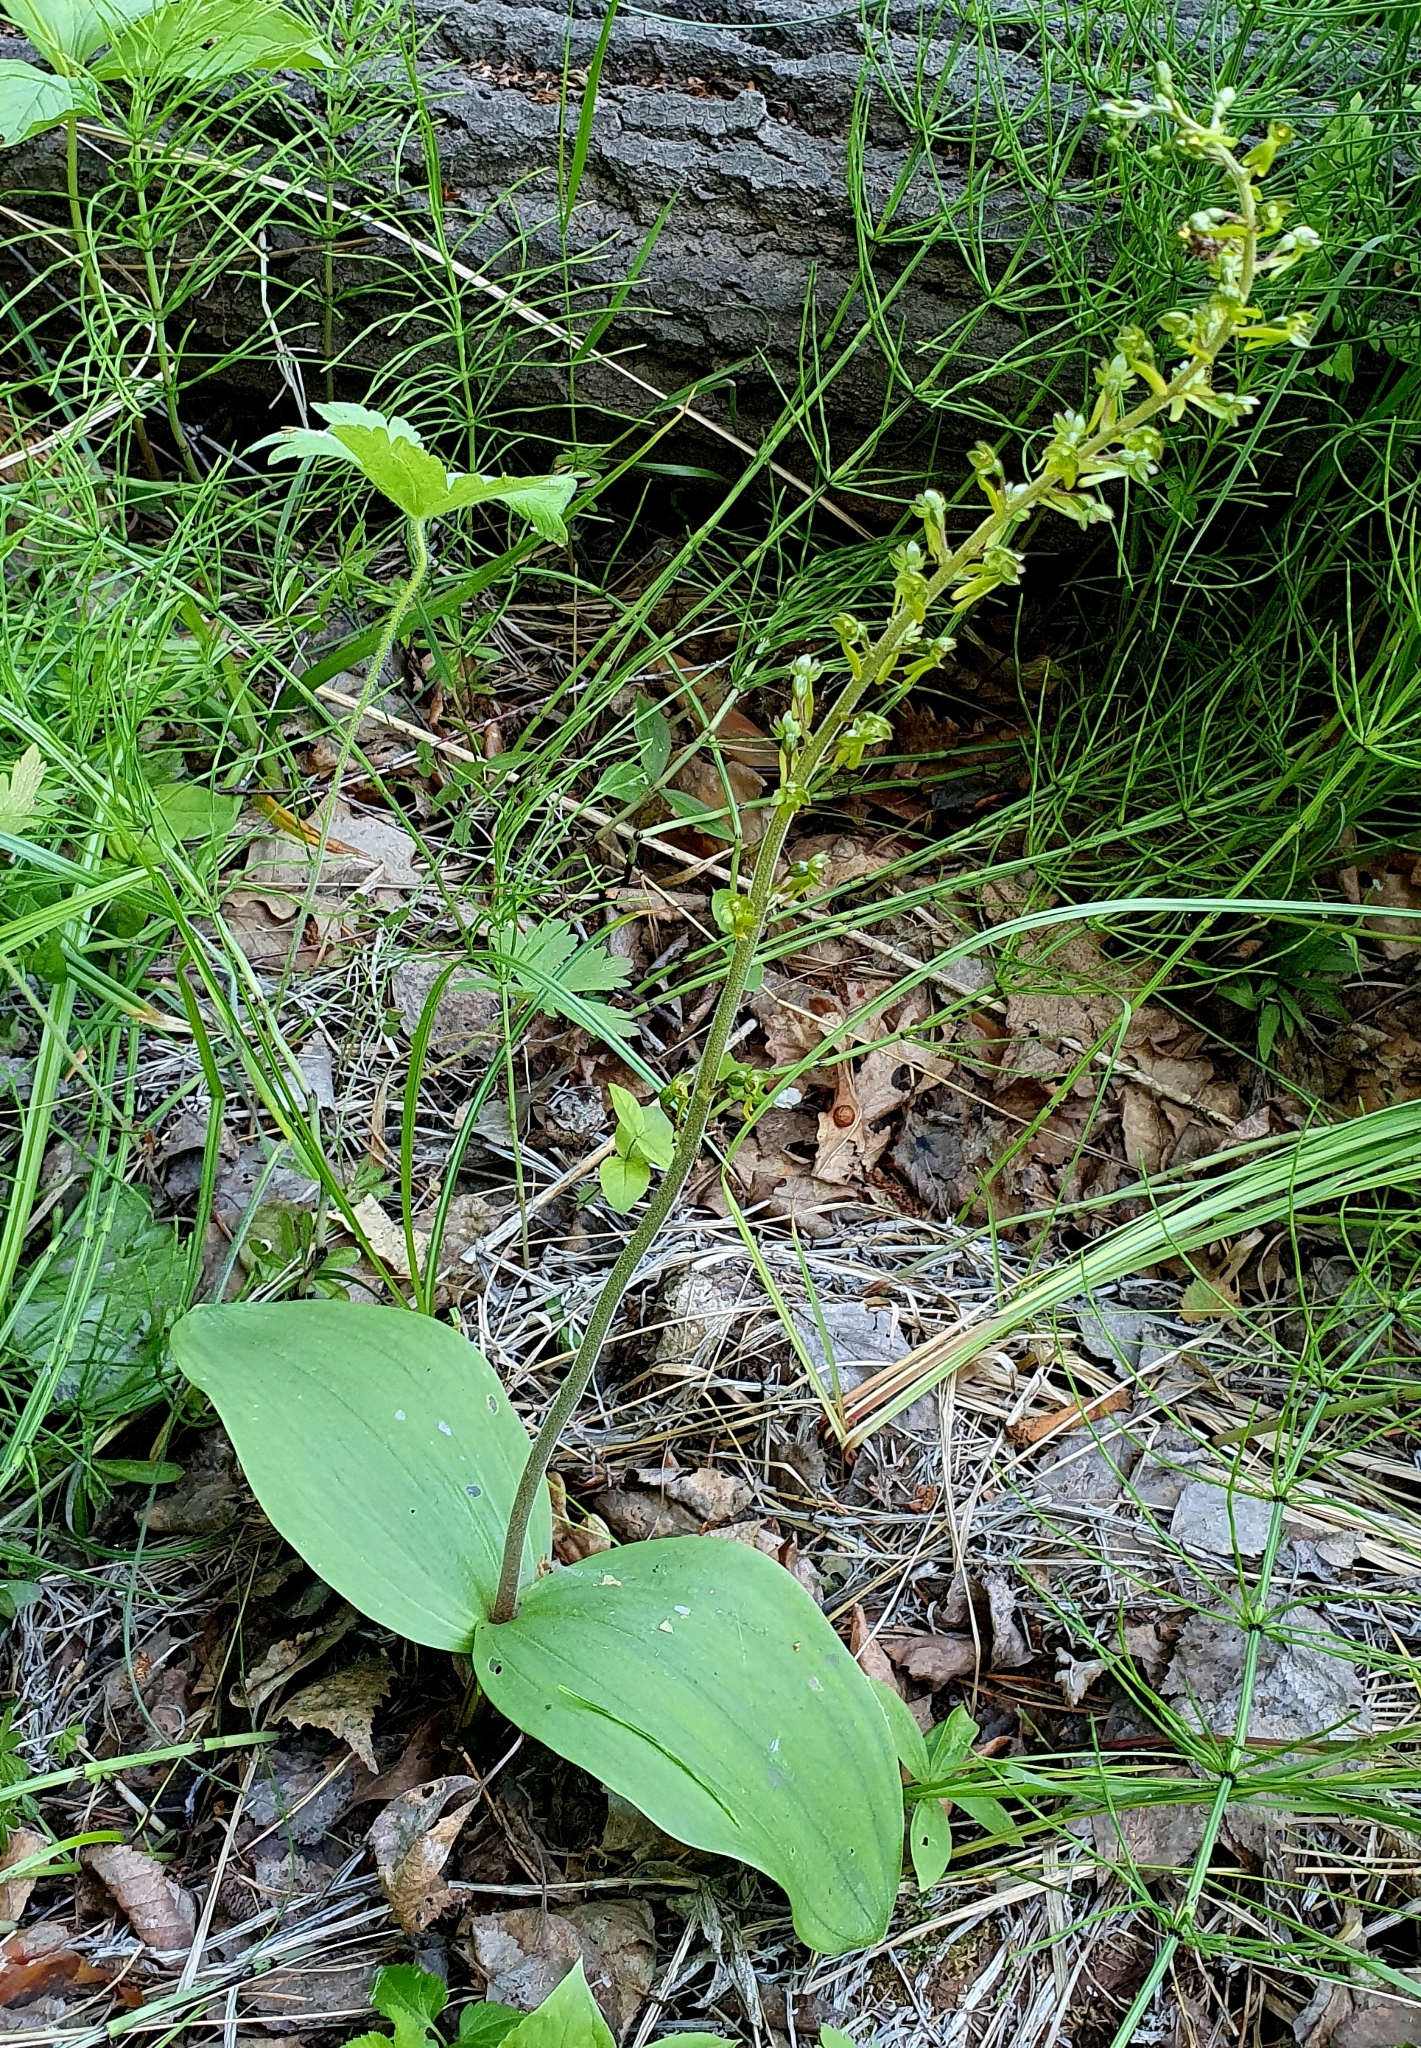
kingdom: Plantae
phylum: Tracheophyta
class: Liliopsida
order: Asparagales
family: Orchidaceae
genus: Neottia
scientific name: Neottia ovata
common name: Common twayblade
